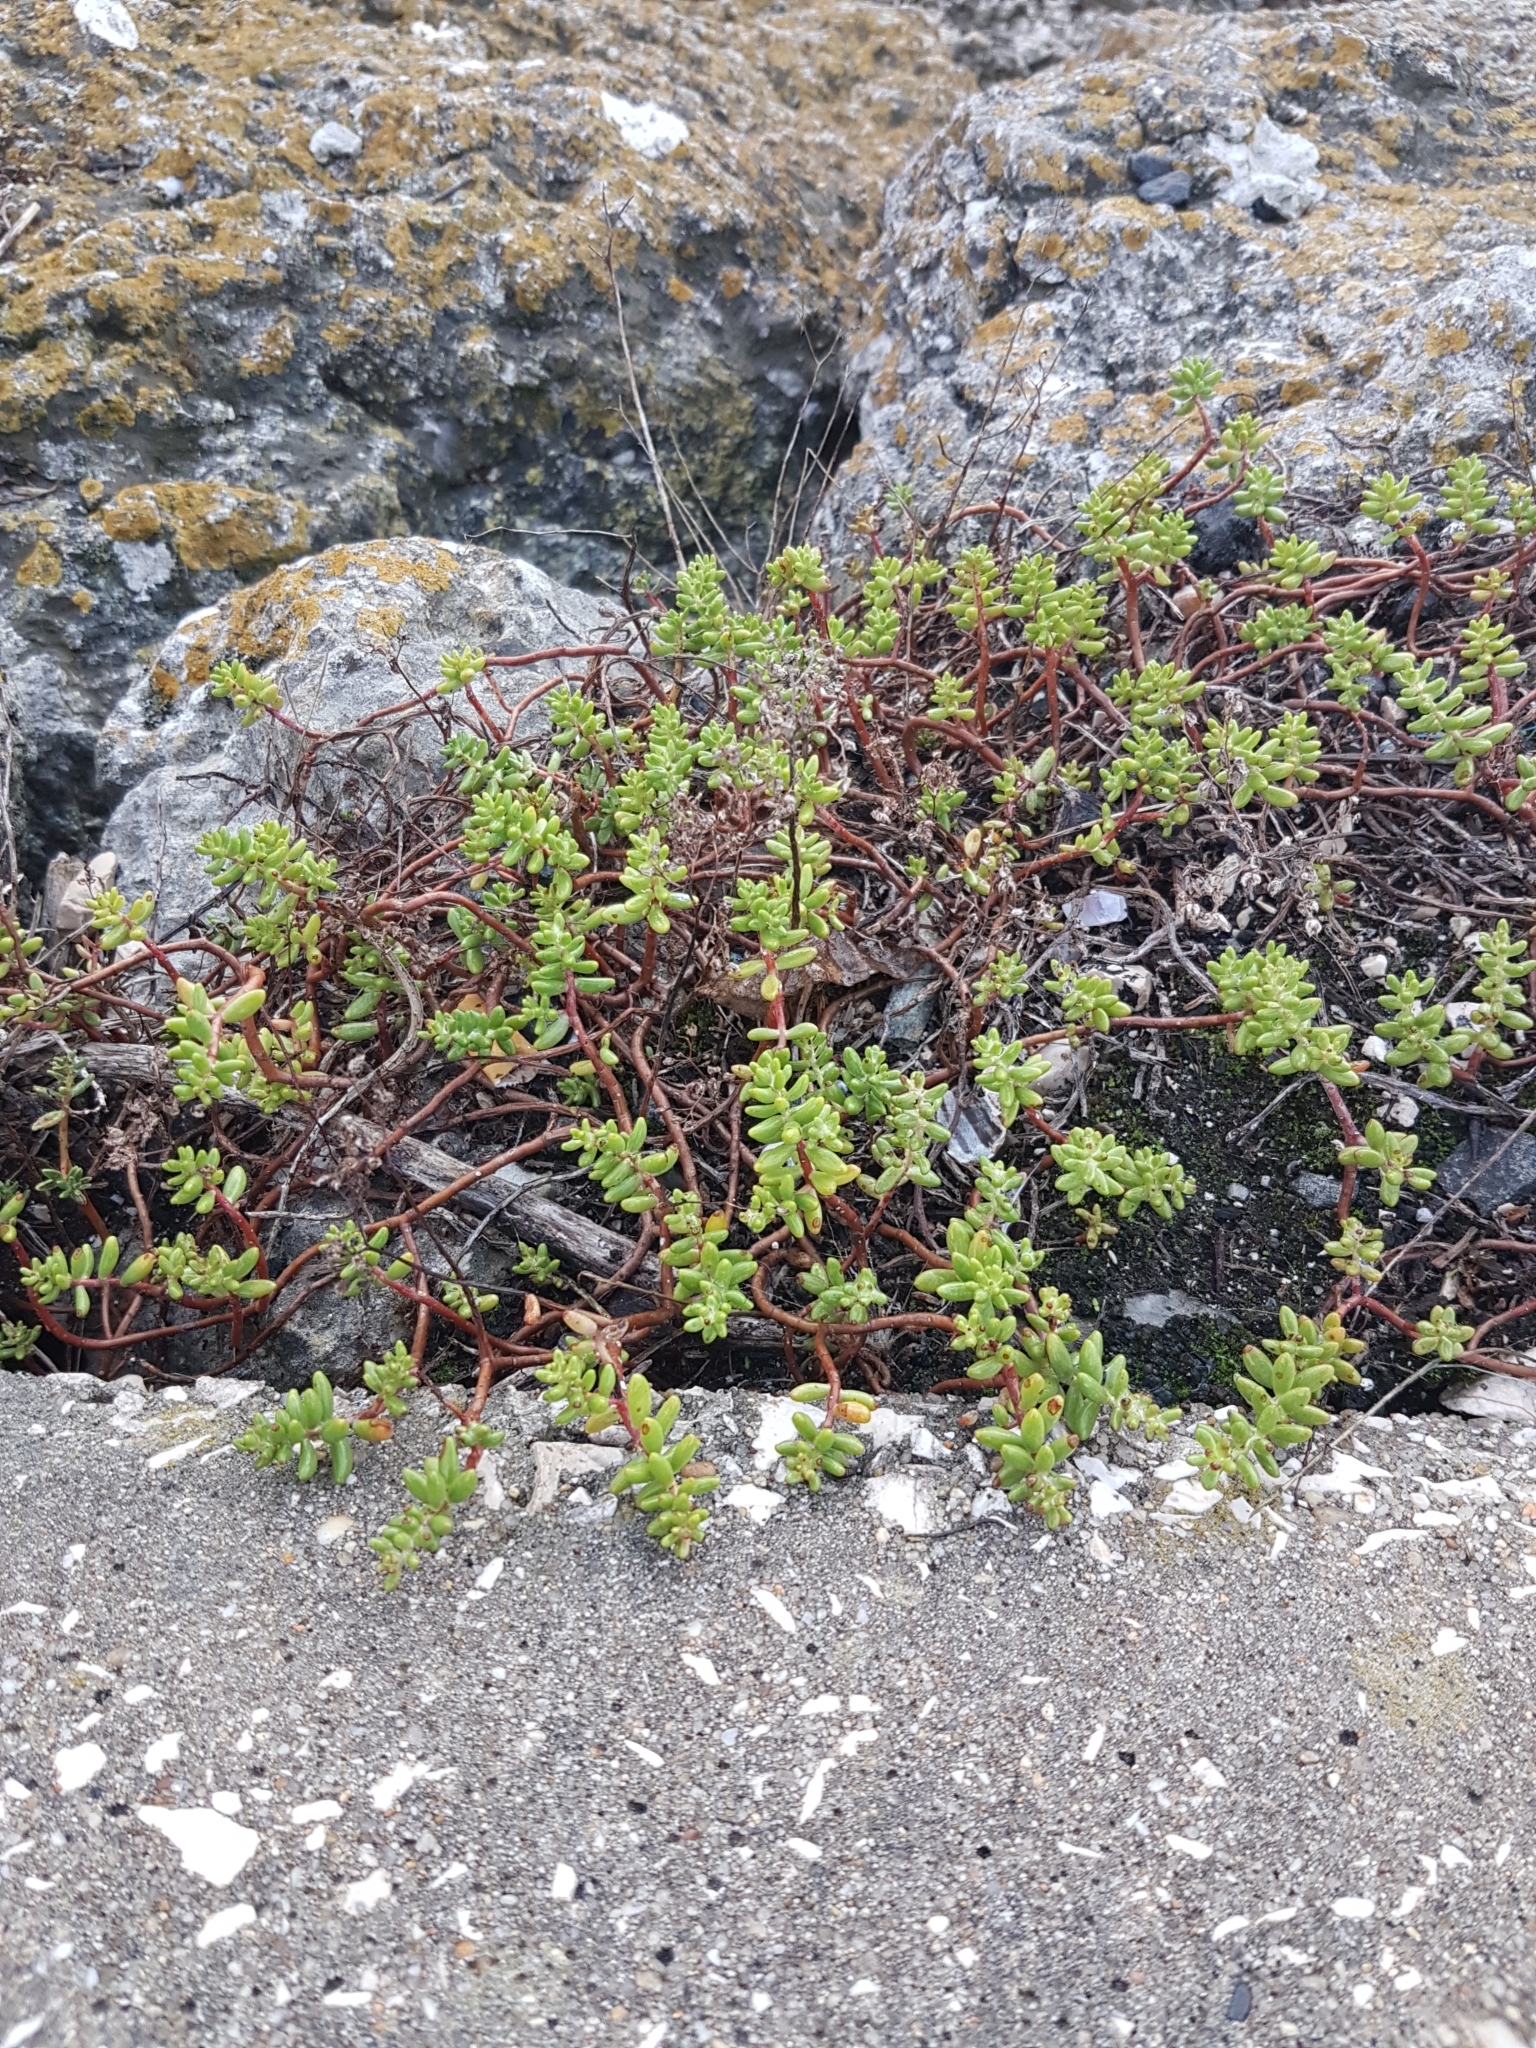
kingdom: Plantae
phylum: Tracheophyta
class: Magnoliopsida
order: Saxifragales
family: Crassulaceae
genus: Sedum
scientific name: Sedum album
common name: White stonecrop
